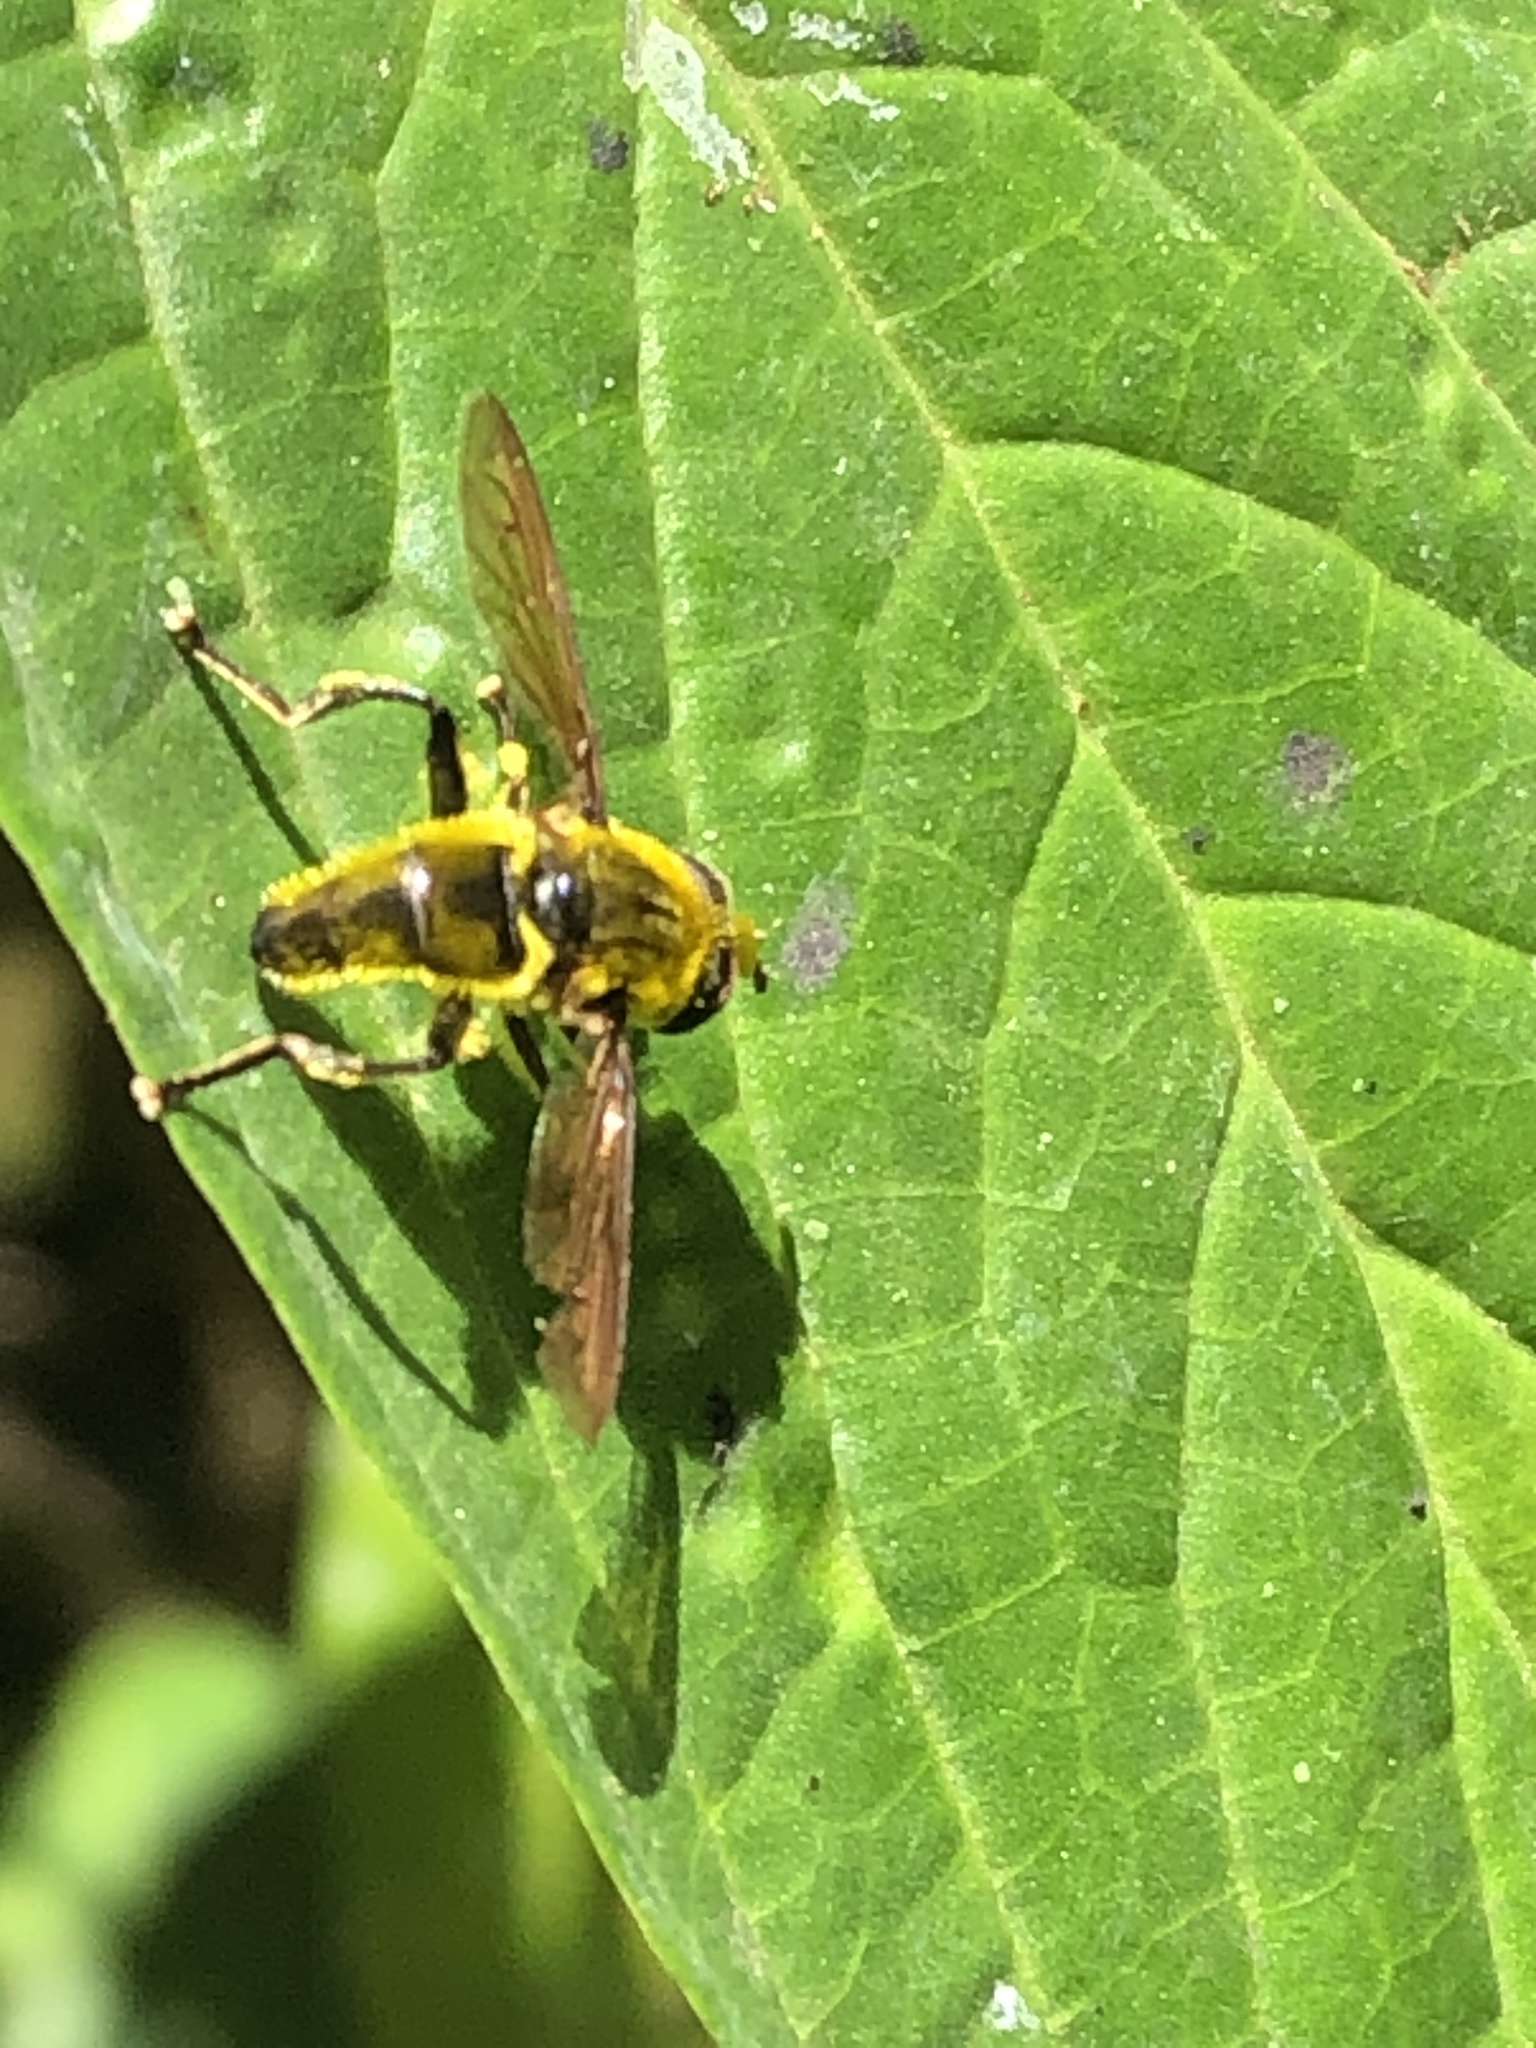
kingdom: Animalia
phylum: Arthropoda
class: Insecta
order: Diptera
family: Syrphidae
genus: Quichuana
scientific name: Quichuana
